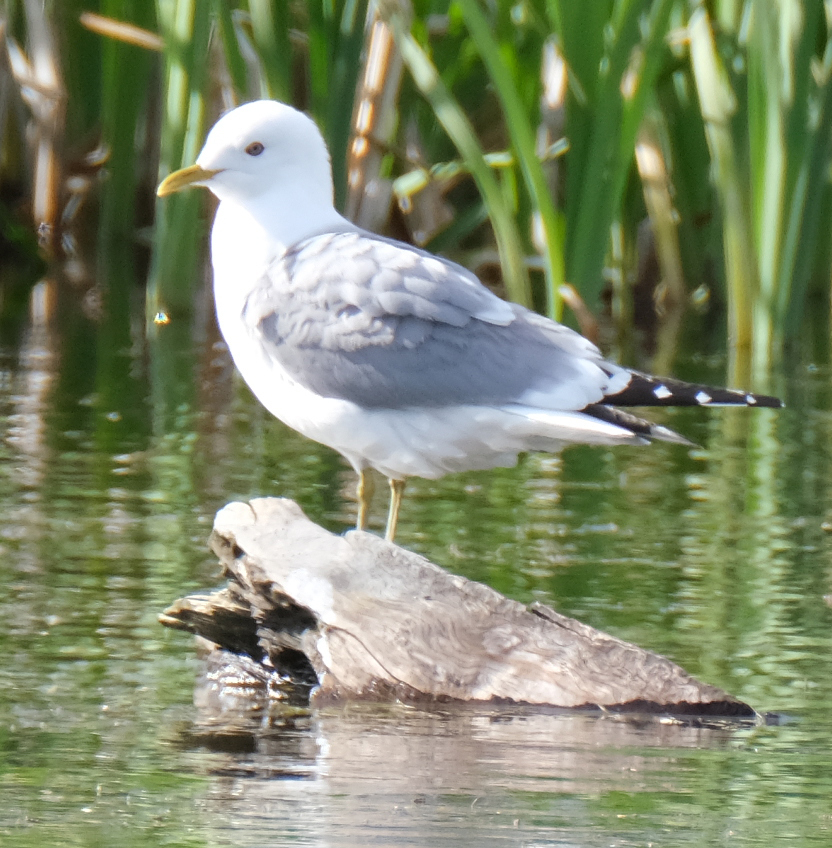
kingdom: Animalia
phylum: Chordata
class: Aves
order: Charadriiformes
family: Laridae
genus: Larus
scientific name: Larus brachyrhynchus
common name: Short-billed gull
